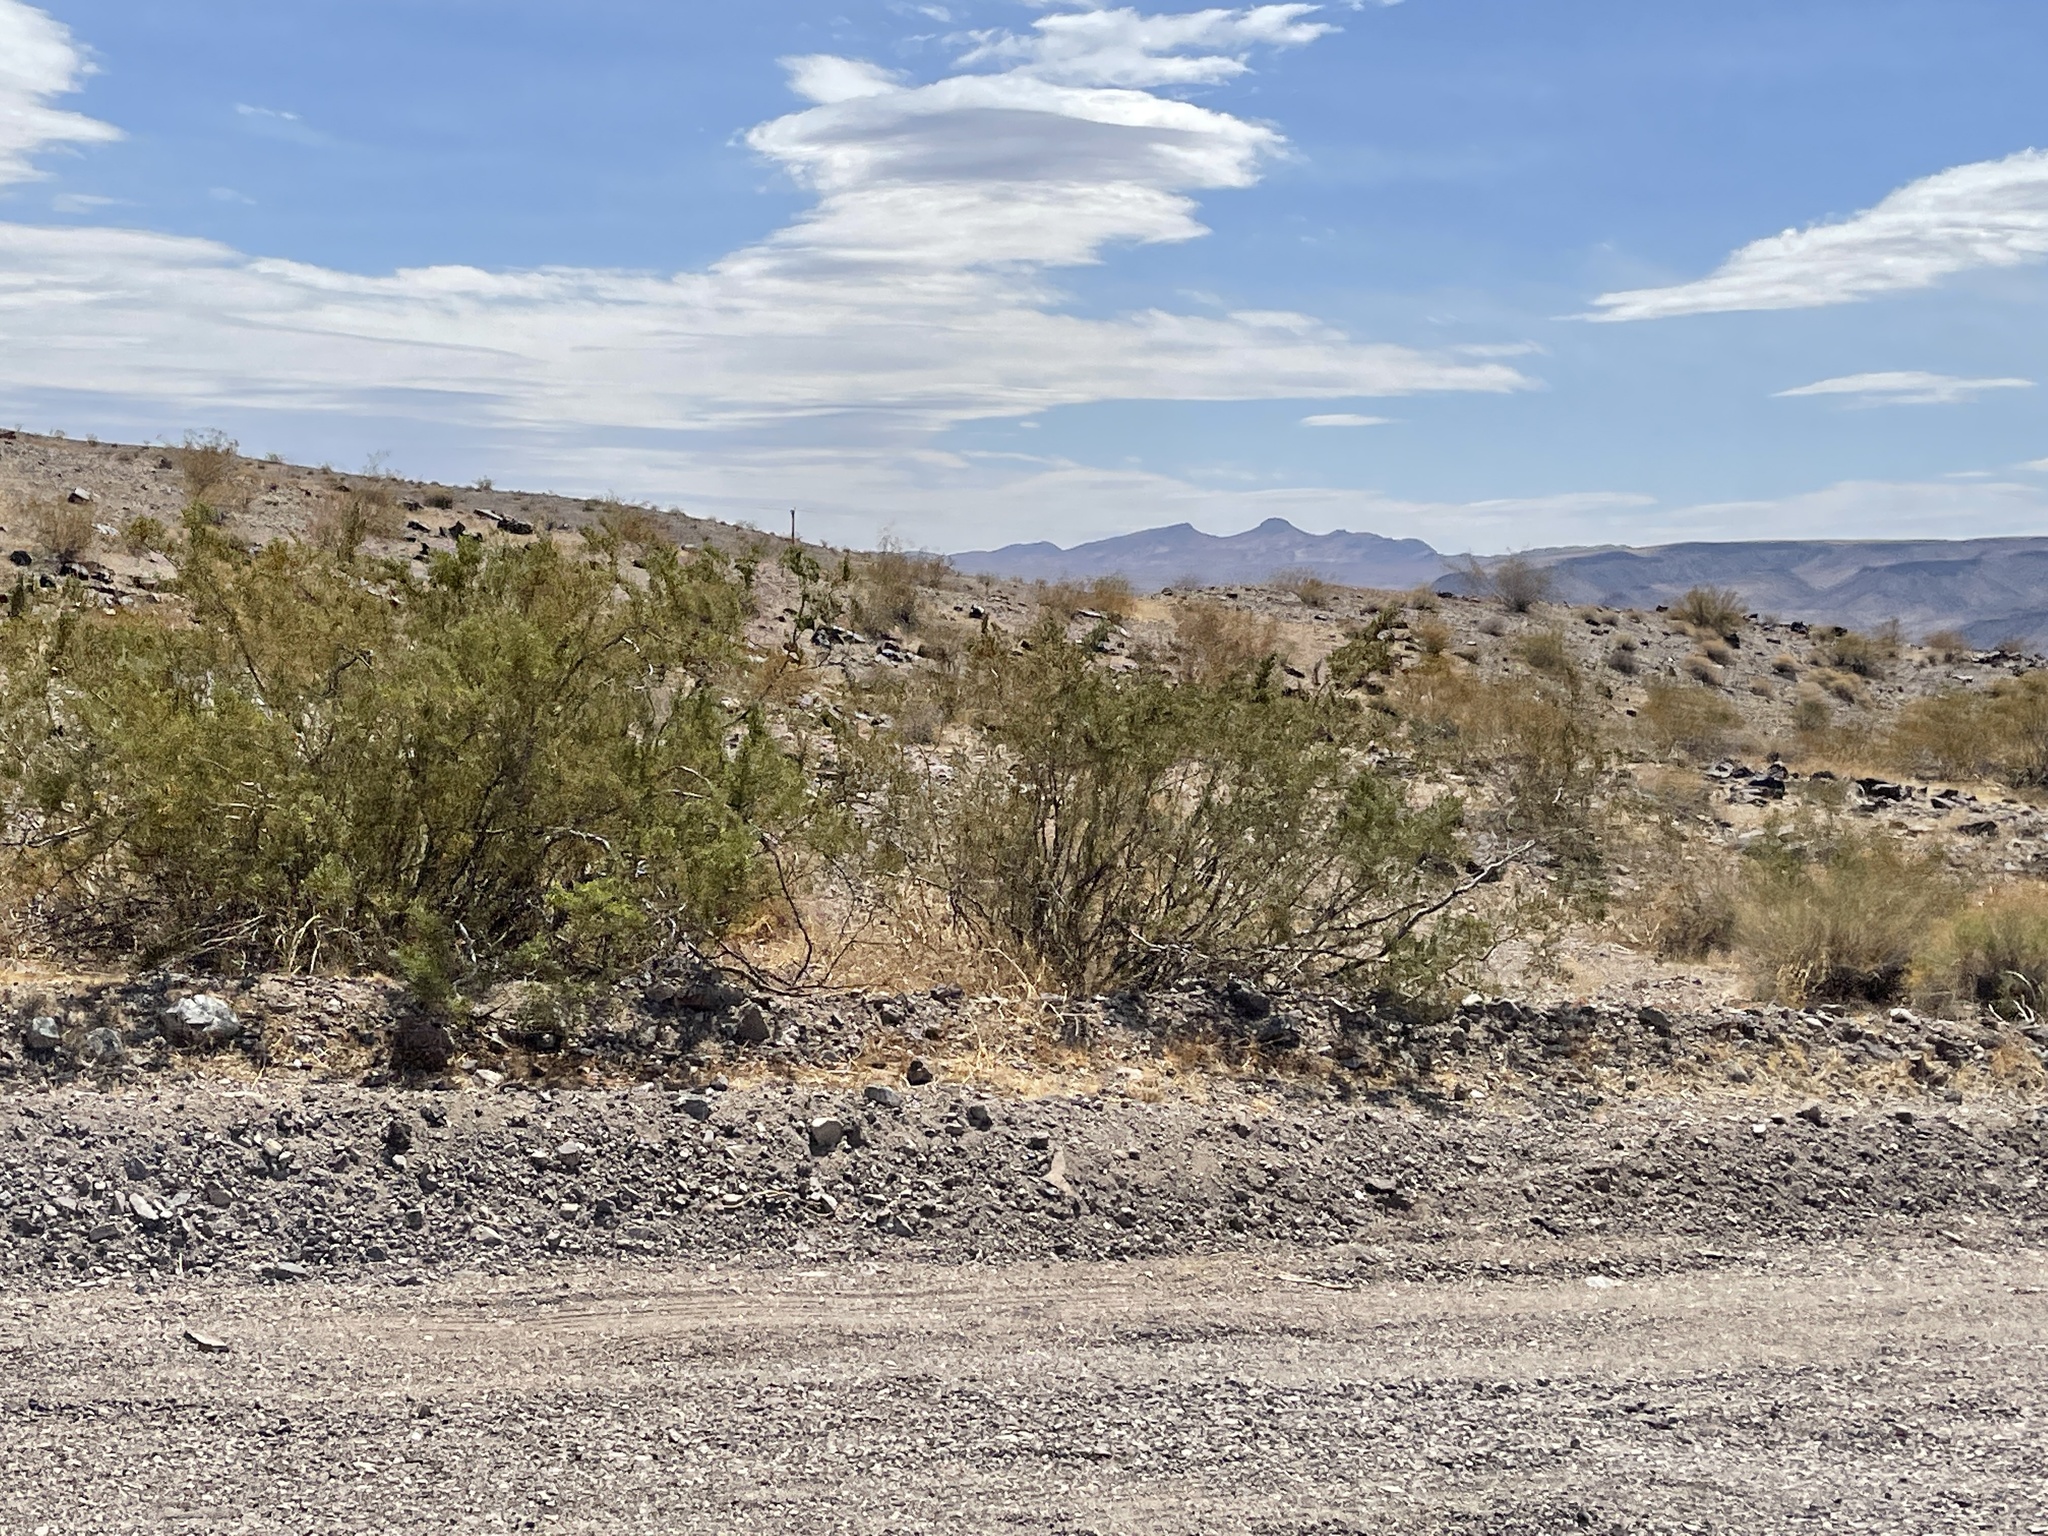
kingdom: Plantae
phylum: Tracheophyta
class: Magnoliopsida
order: Zygophyllales
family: Zygophyllaceae
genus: Larrea
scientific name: Larrea tridentata
